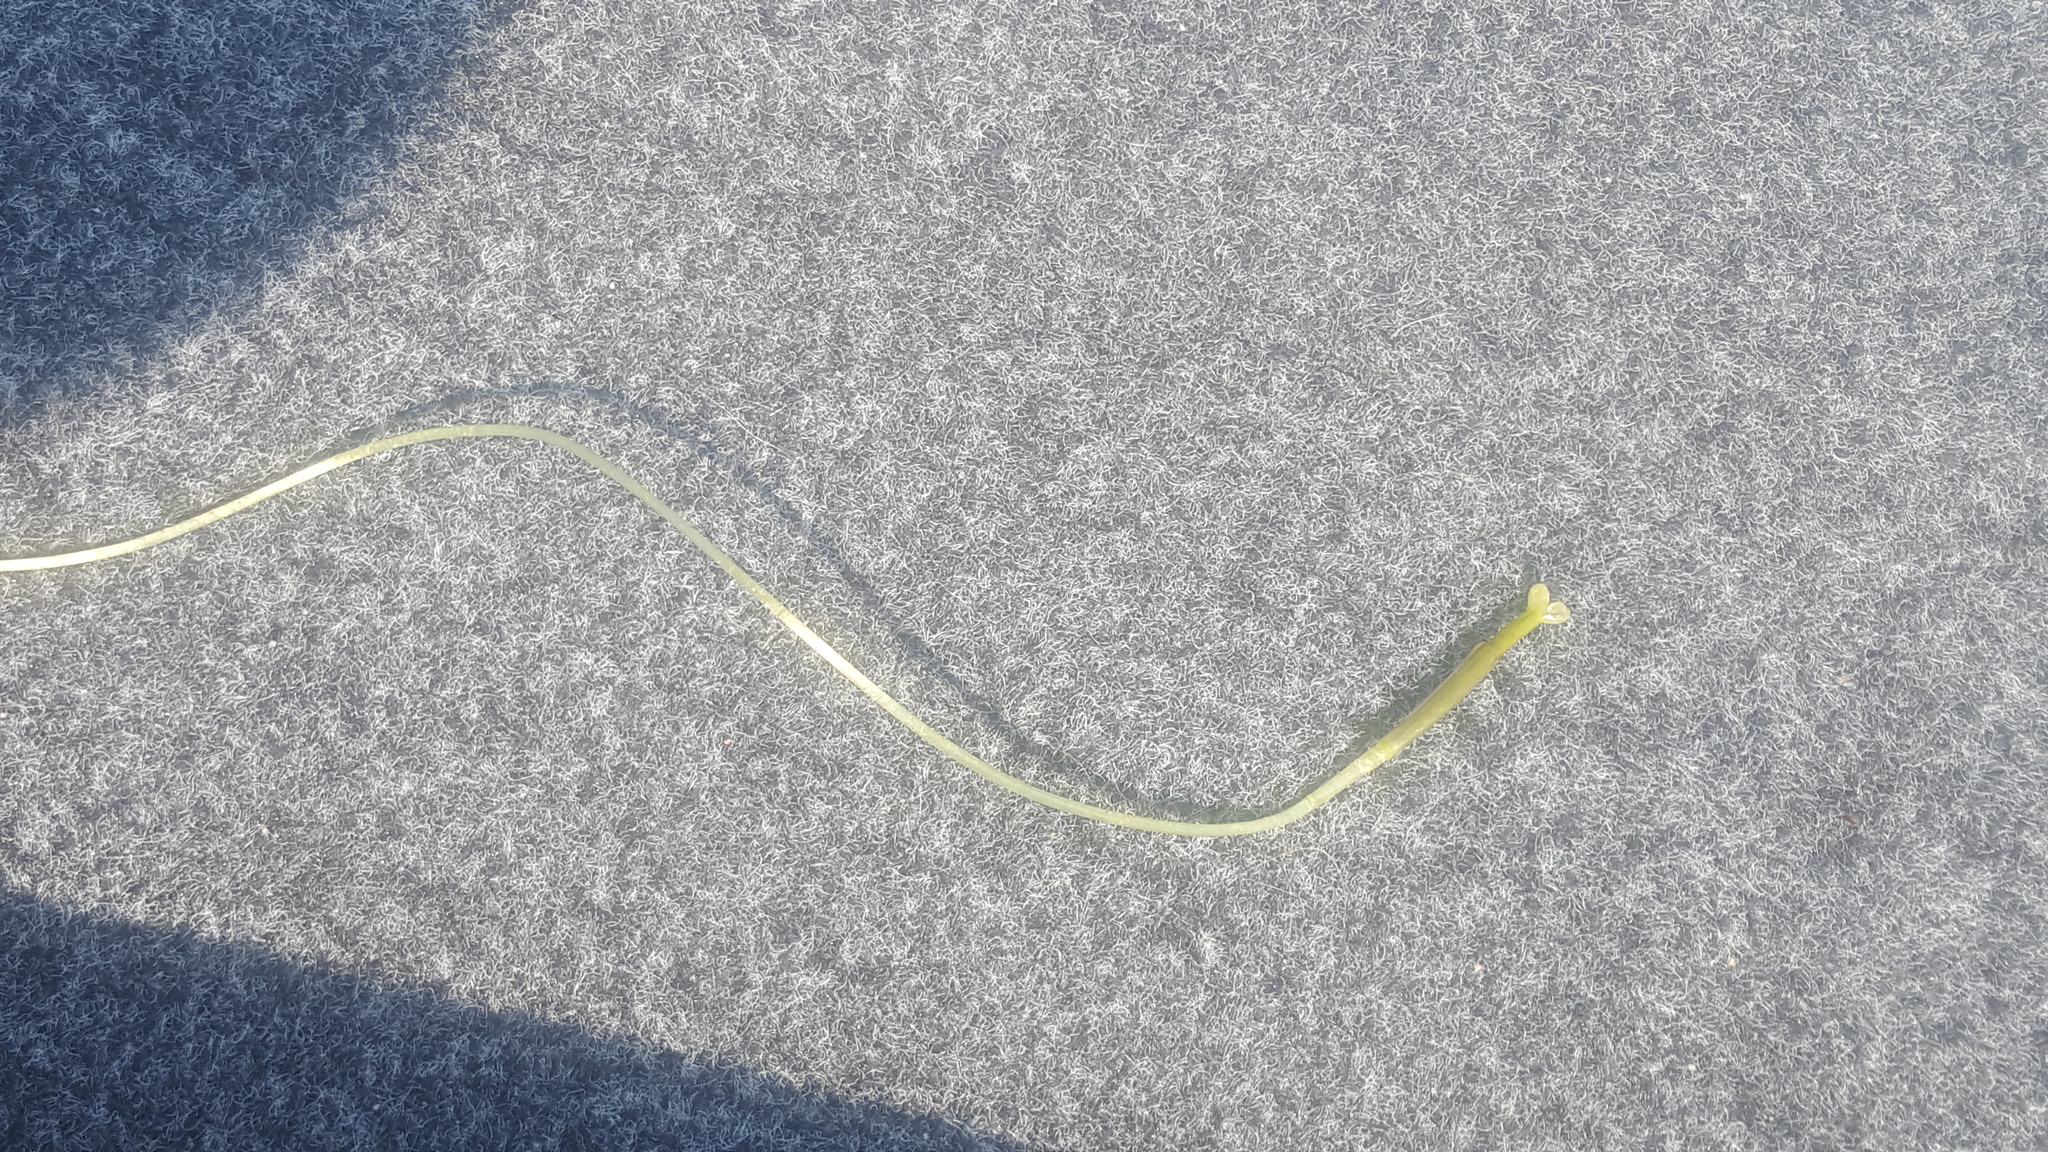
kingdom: Plantae
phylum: Tracheophyta
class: Liliopsida
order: Alismatales
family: Hydrocharitaceae
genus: Vallisneria
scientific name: Vallisneria americana
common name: American eelgrass
